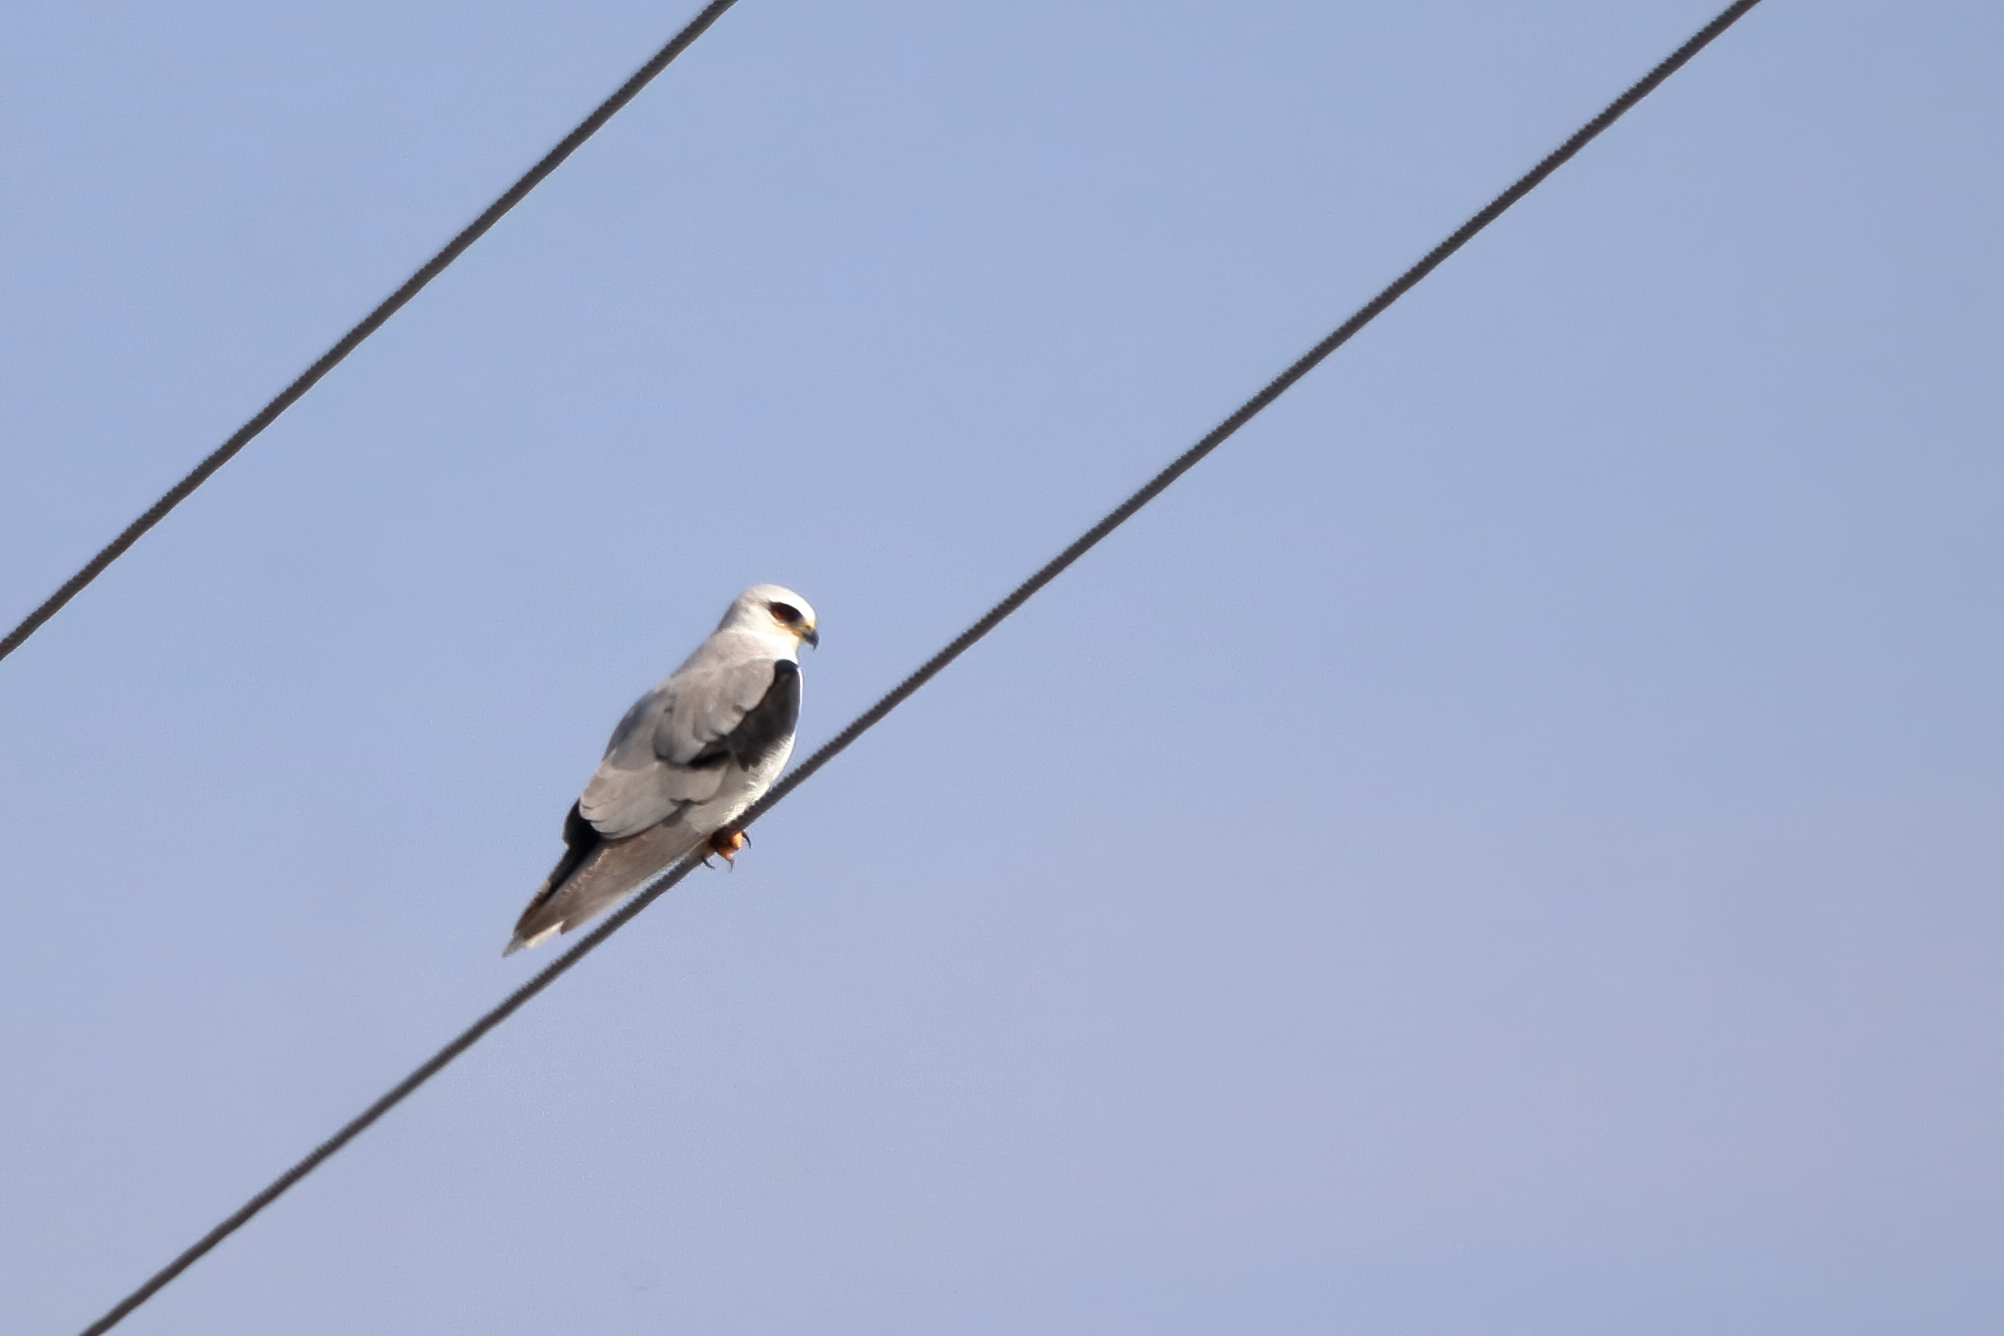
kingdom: Animalia
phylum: Chordata
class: Aves
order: Accipitriformes
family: Accipitridae
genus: Elanus
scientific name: Elanus leucurus
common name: White-tailed kite
